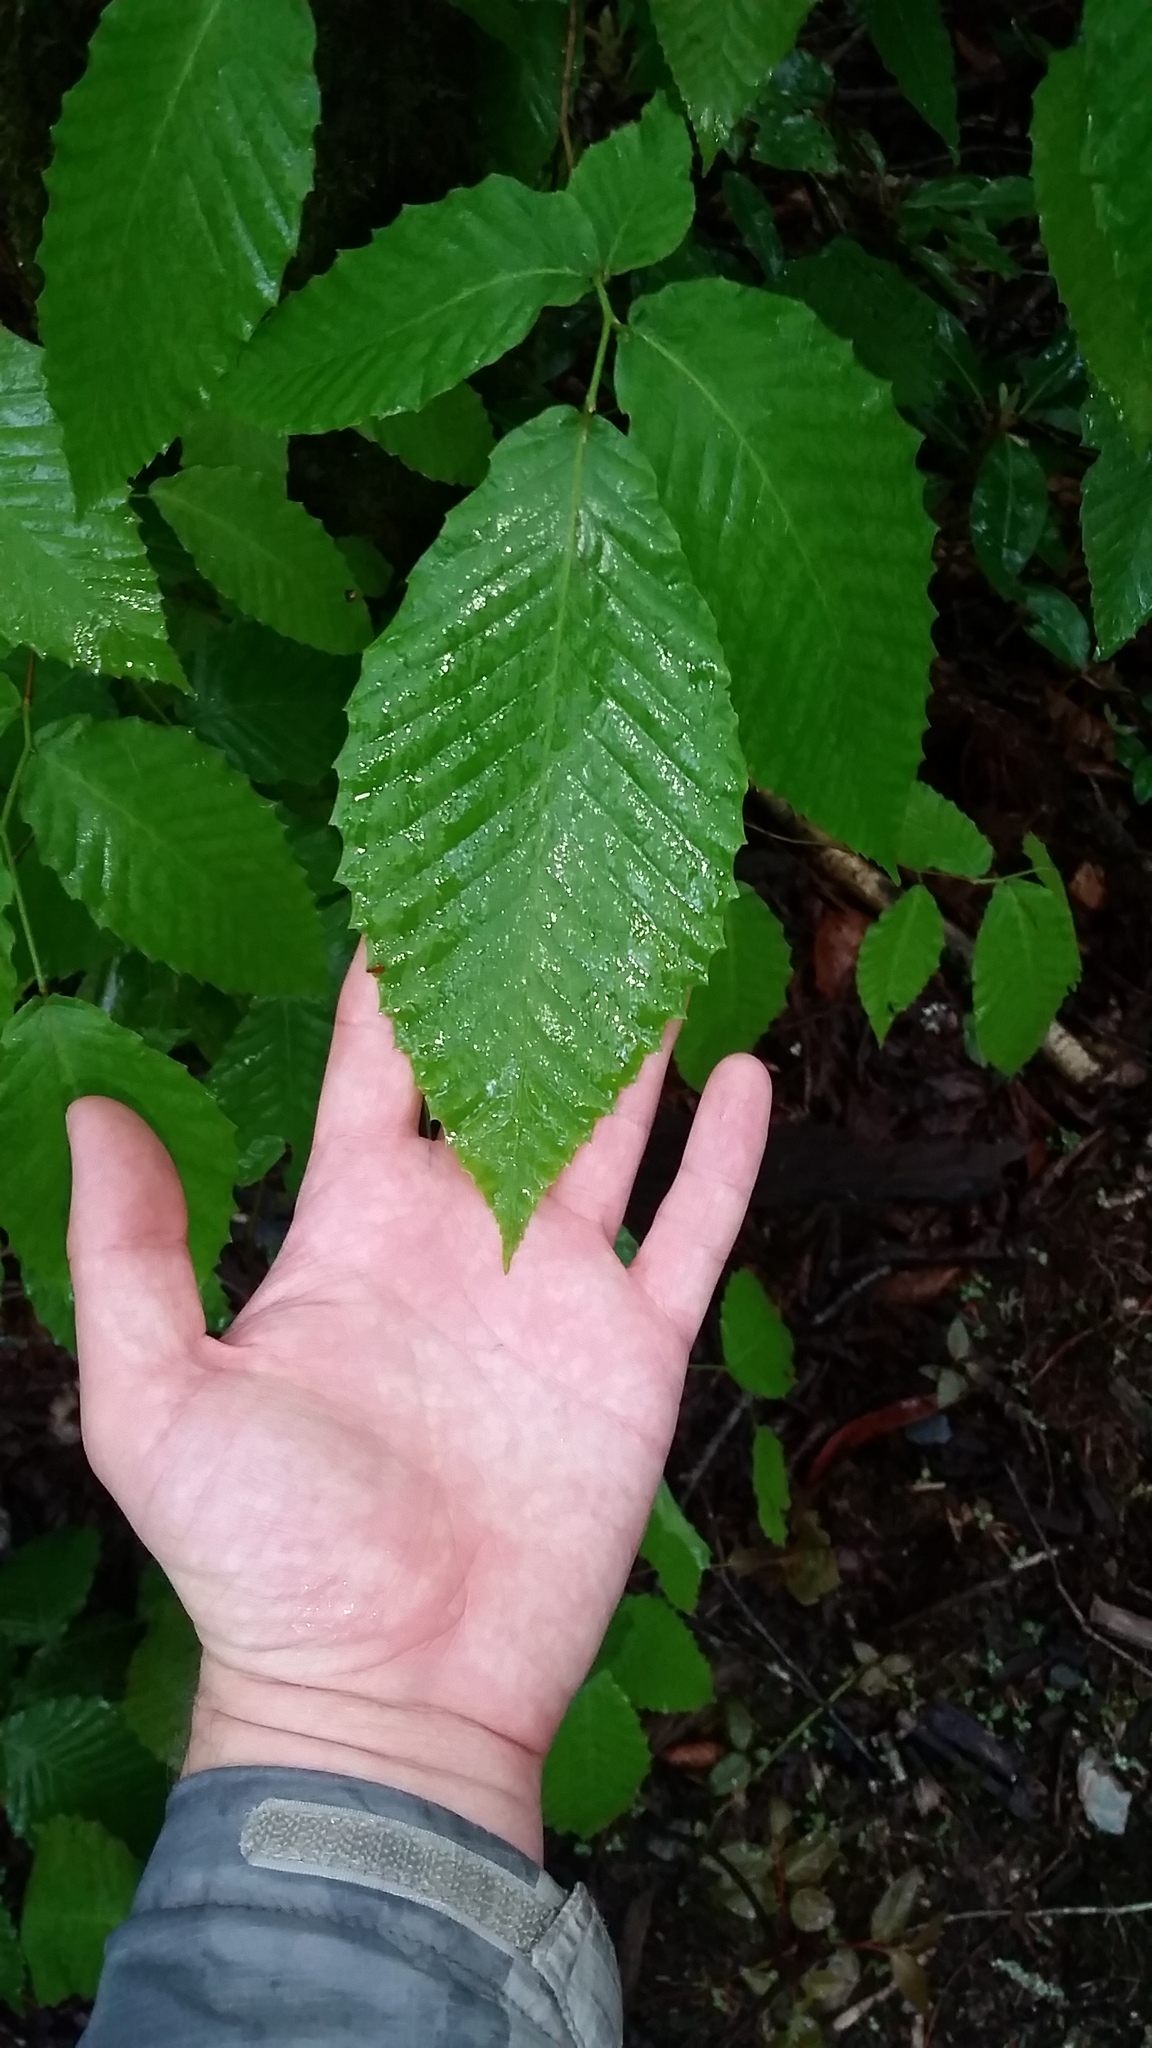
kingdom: Plantae
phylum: Tracheophyta
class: Magnoliopsida
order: Fagales
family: Fagaceae
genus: Fagus
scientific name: Fagus grandifolia
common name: American beech
